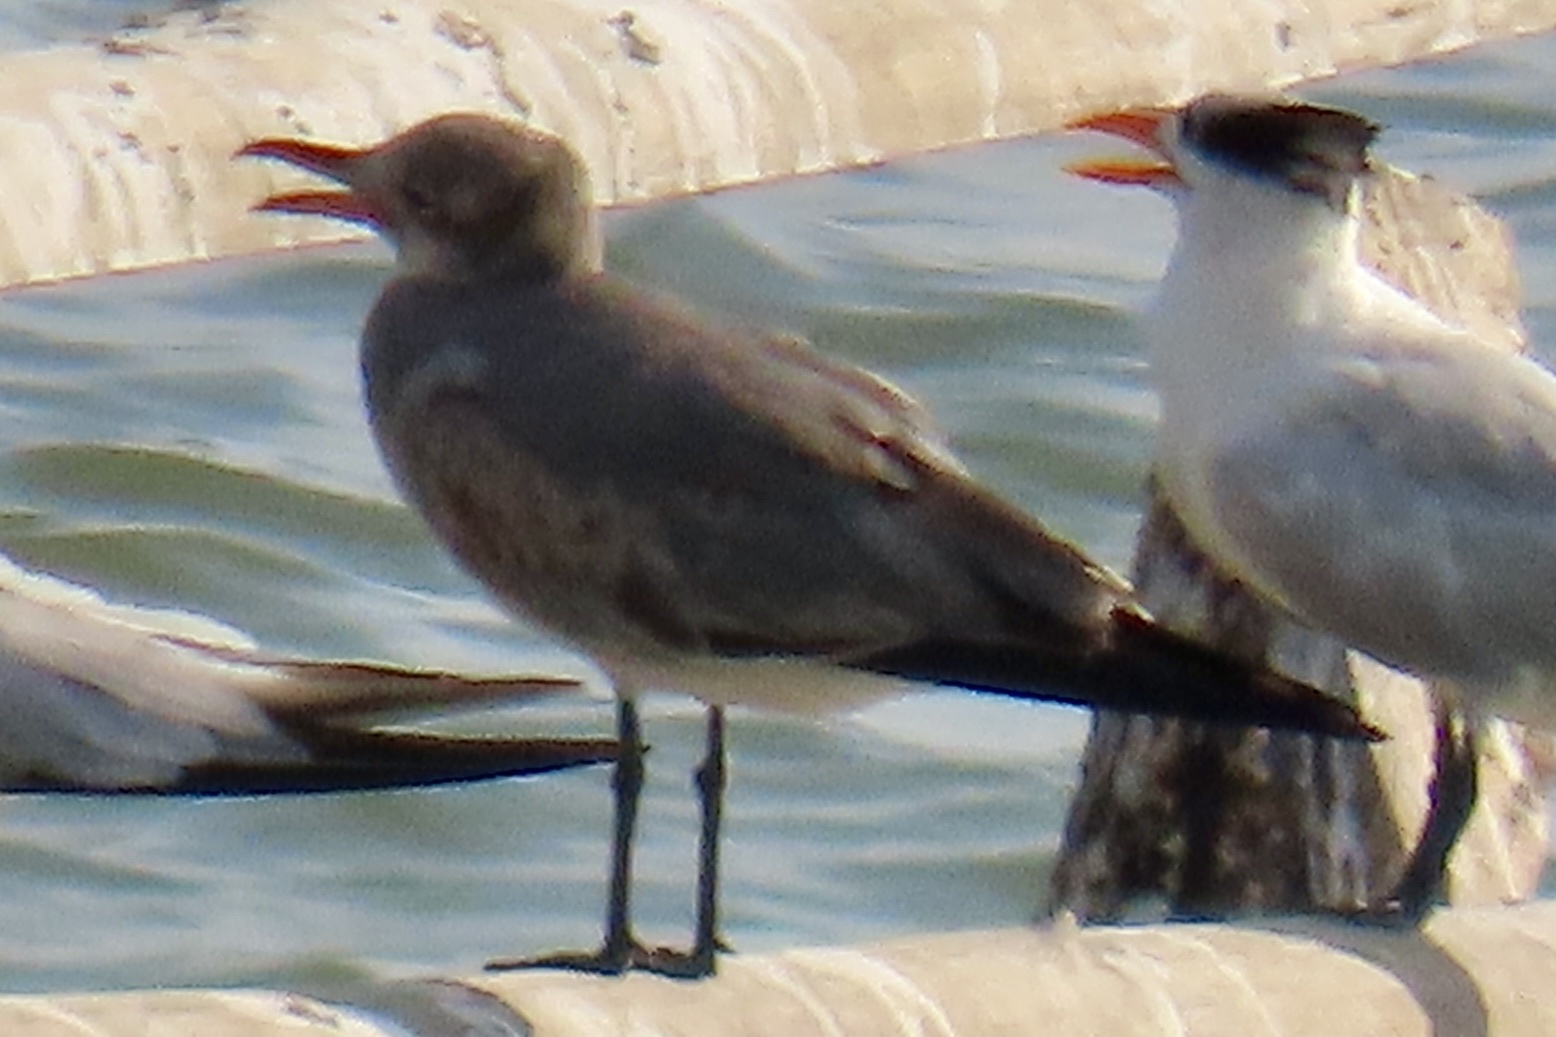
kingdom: Animalia
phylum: Chordata
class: Aves
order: Charadriiformes
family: Laridae
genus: Leucophaeus
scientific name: Leucophaeus atricilla
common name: Laughing gull
